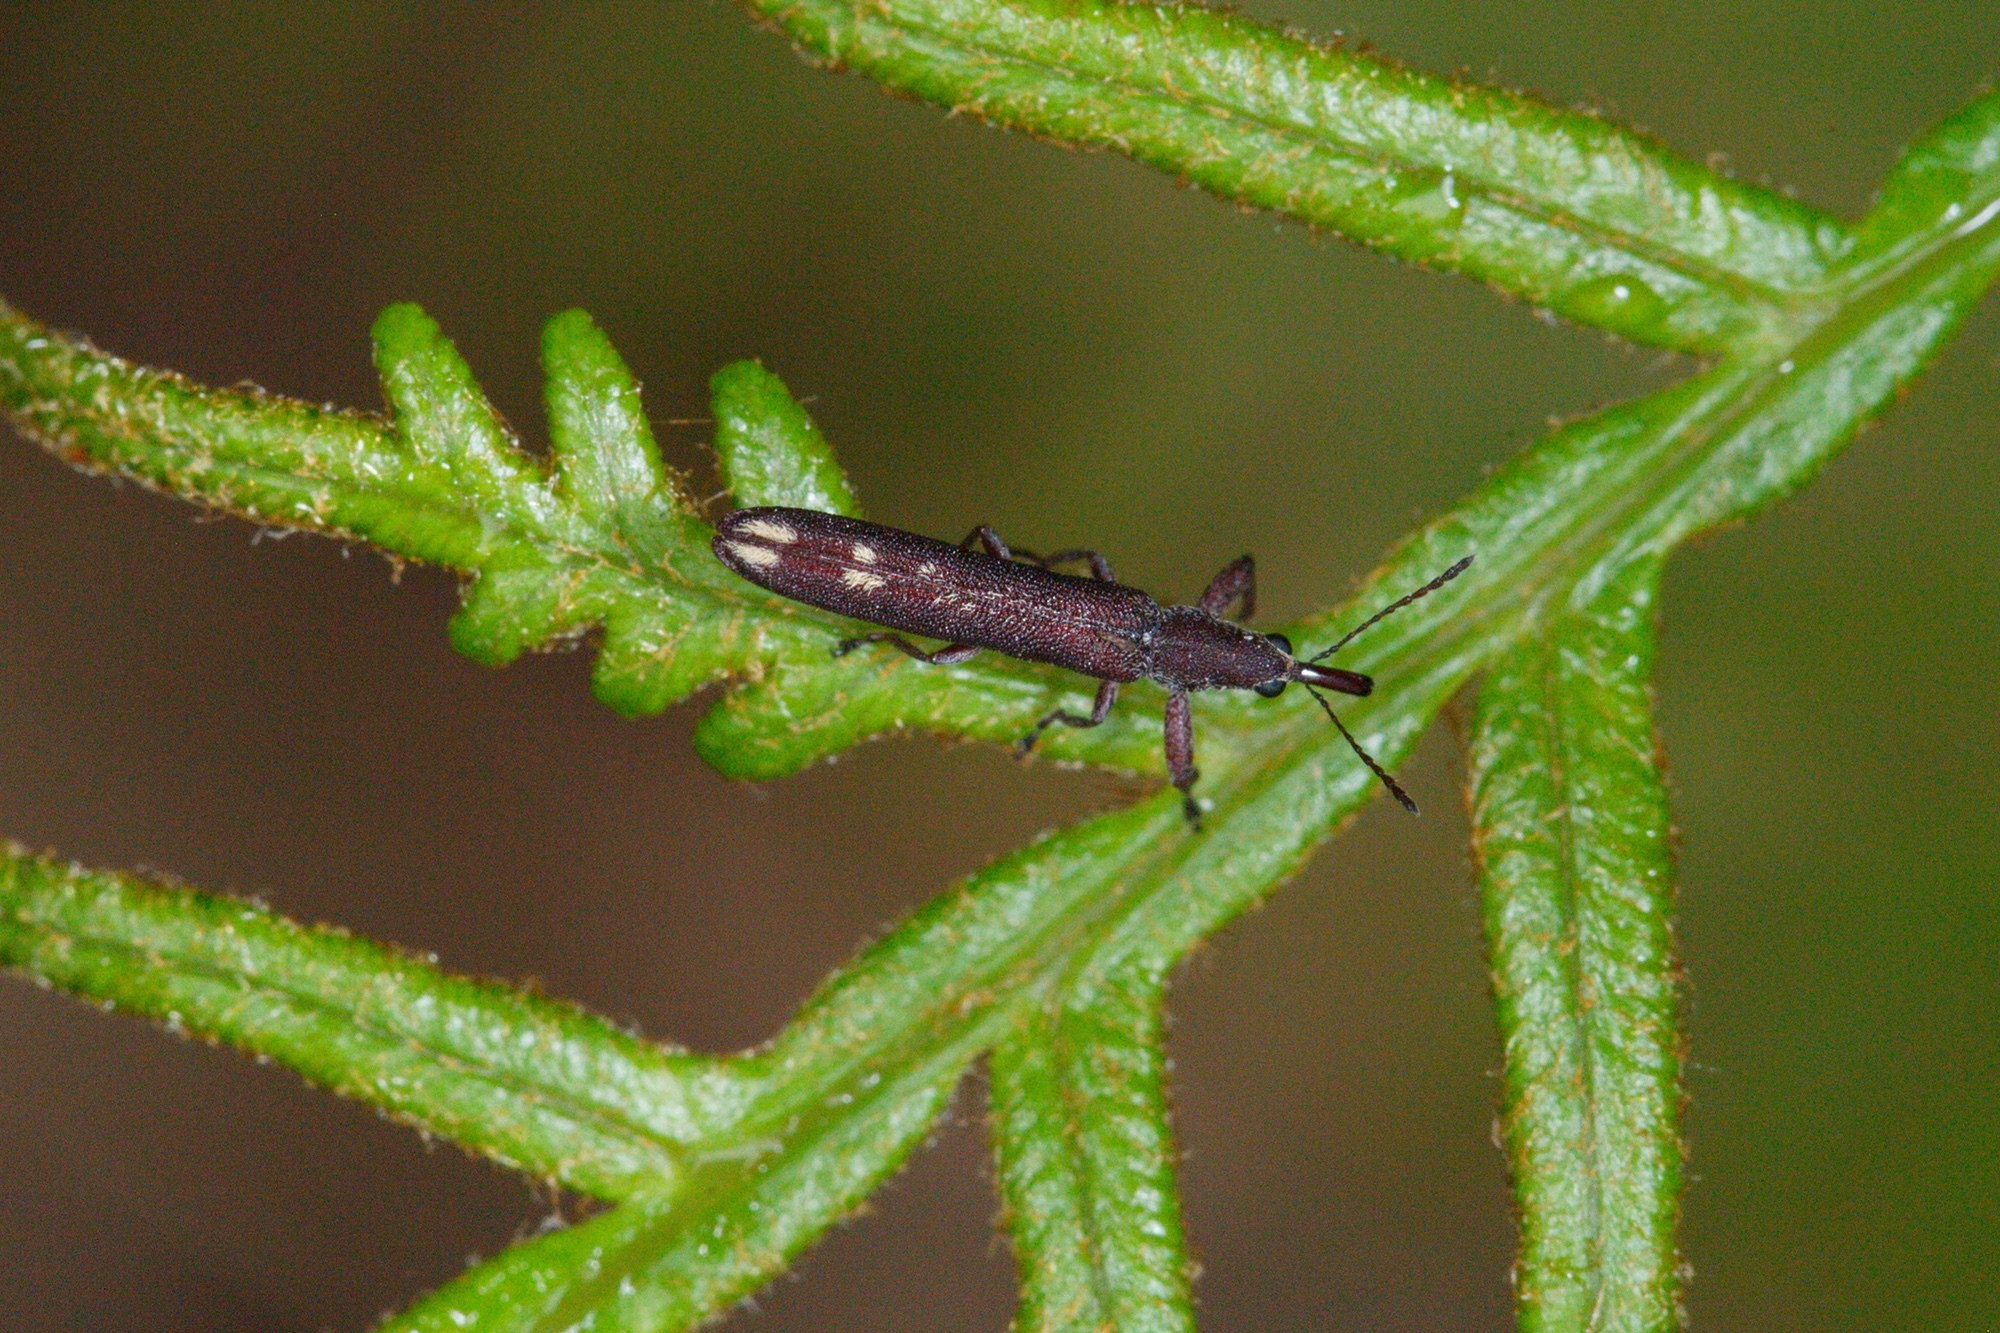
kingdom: Animalia
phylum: Arthropoda
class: Insecta
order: Coleoptera
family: Belidae
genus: Araiobelus
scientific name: Araiobelus filum
